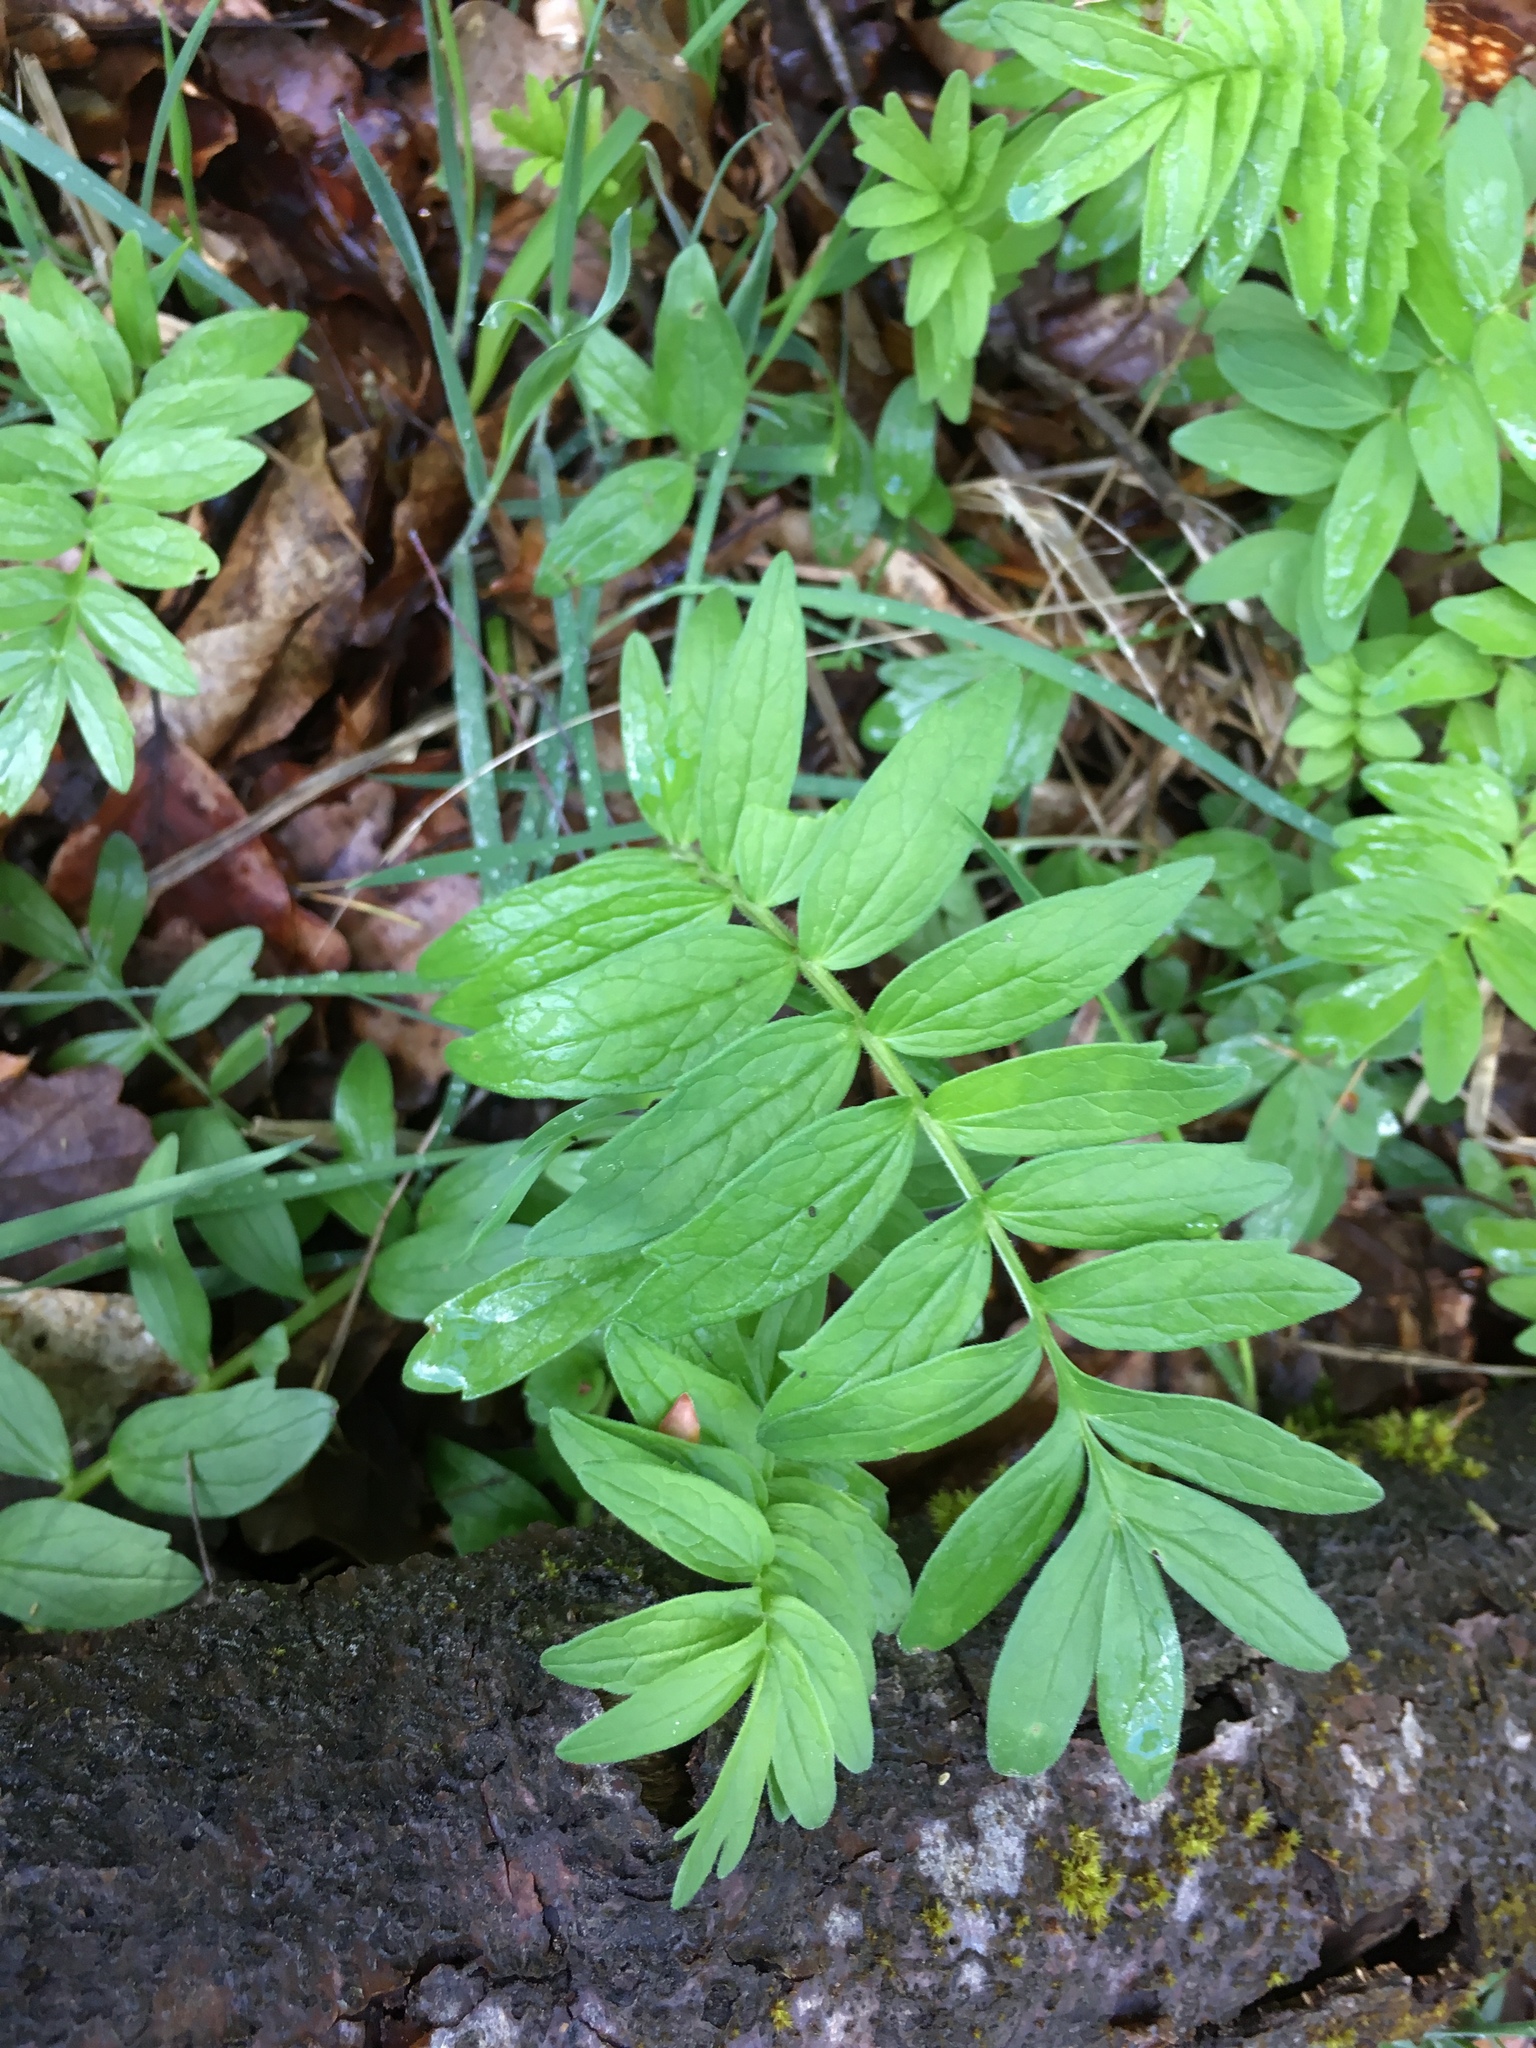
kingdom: Plantae
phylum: Tracheophyta
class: Magnoliopsida
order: Dipsacales
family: Caprifoliaceae
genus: Valeriana
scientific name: Valeriana officinalis
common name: Common valerian
